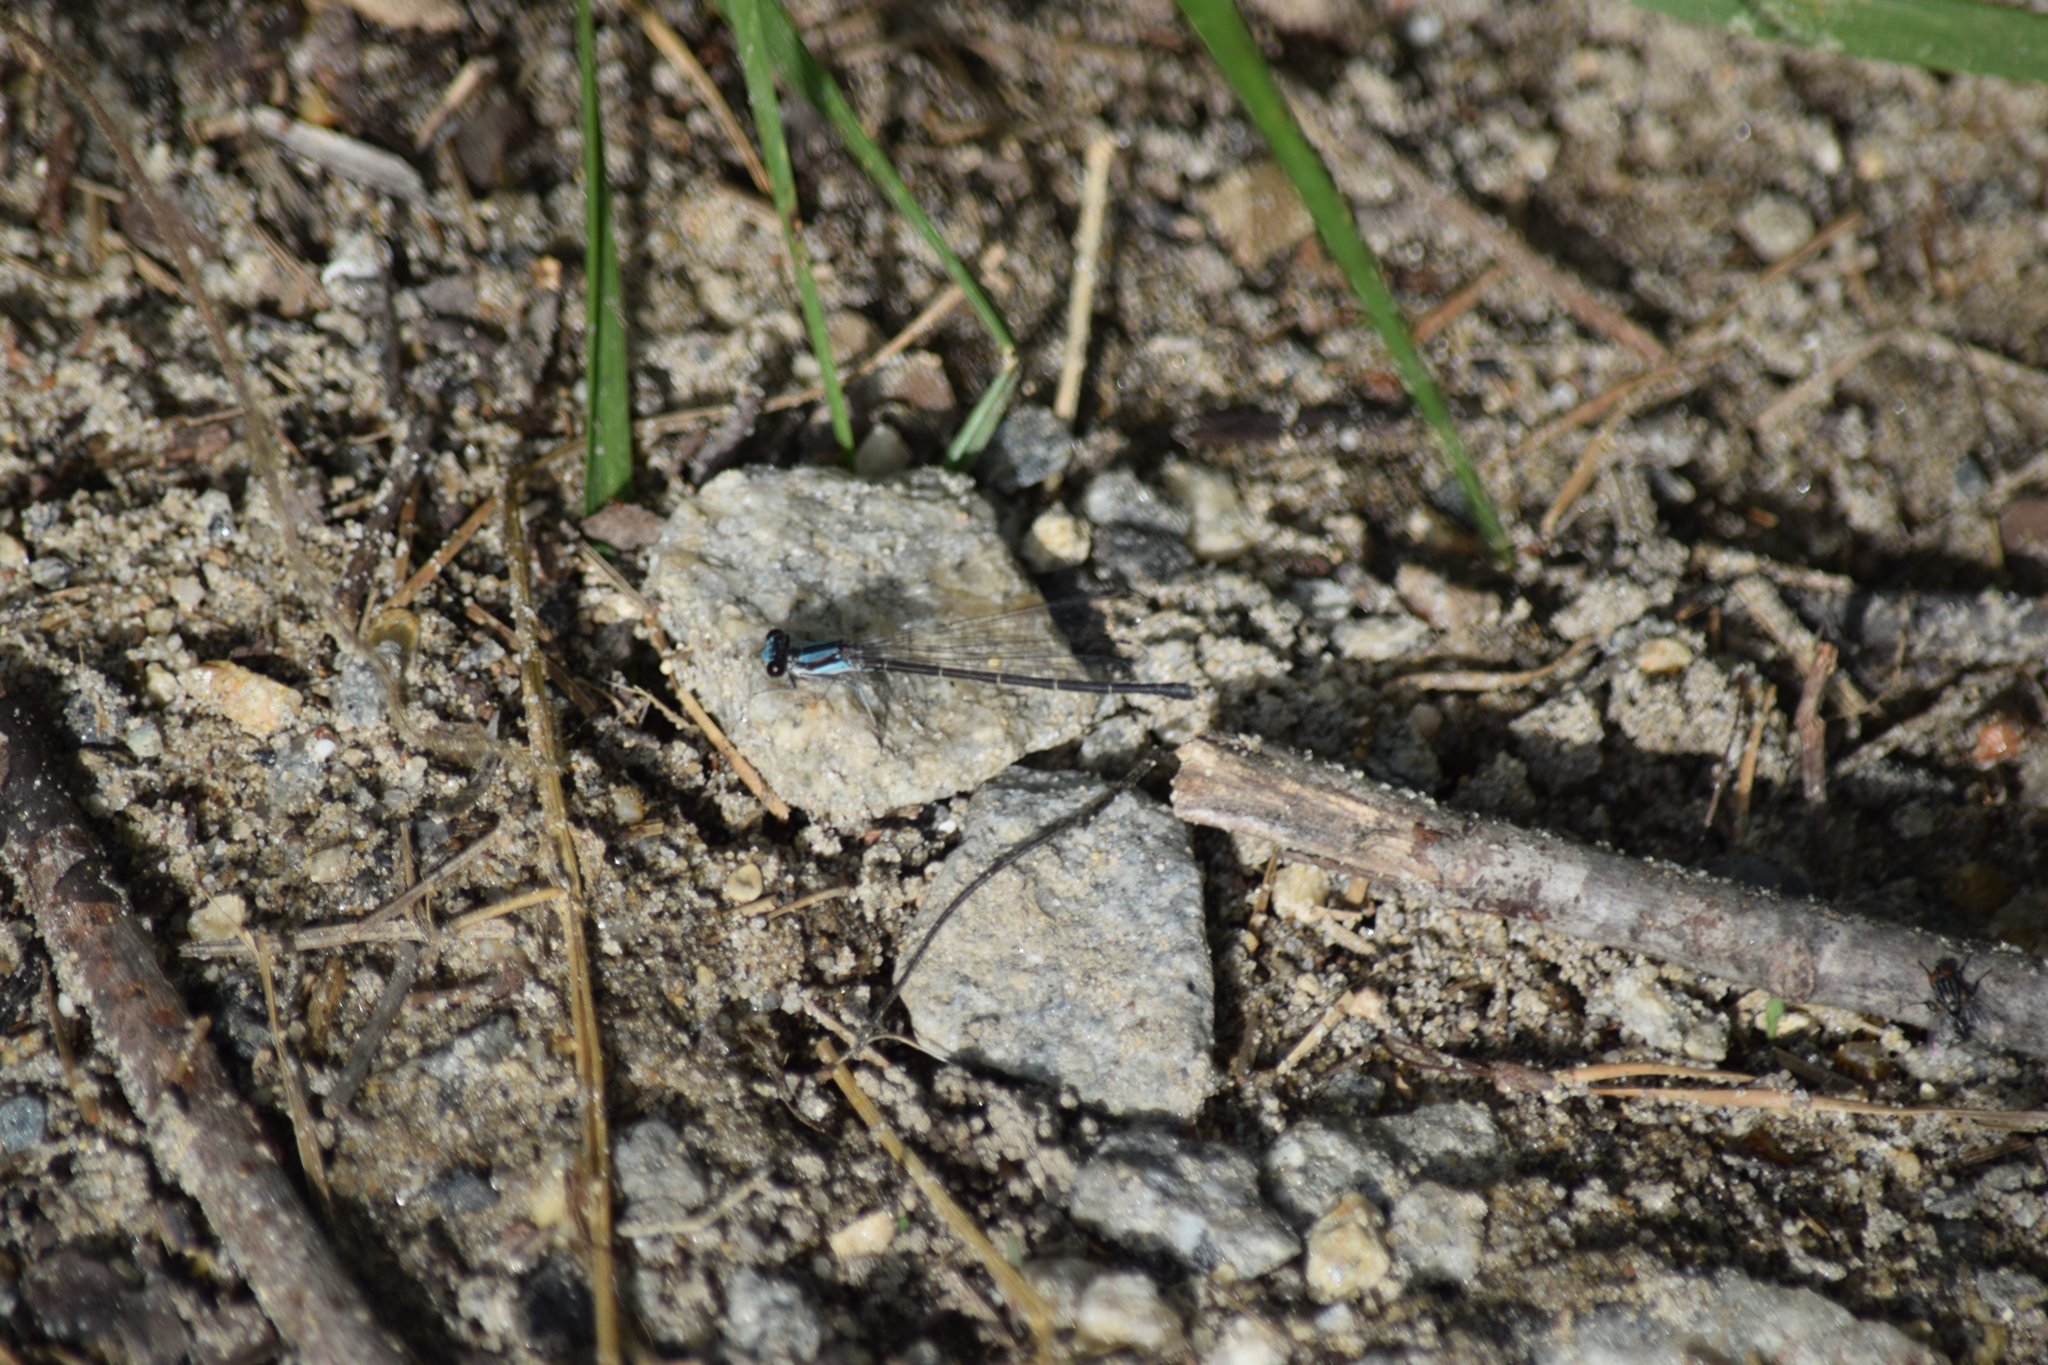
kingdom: Animalia
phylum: Arthropoda
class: Insecta
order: Odonata
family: Coenagrionidae
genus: Argia
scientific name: Argia tibialis
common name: Blue-tipped dancer
